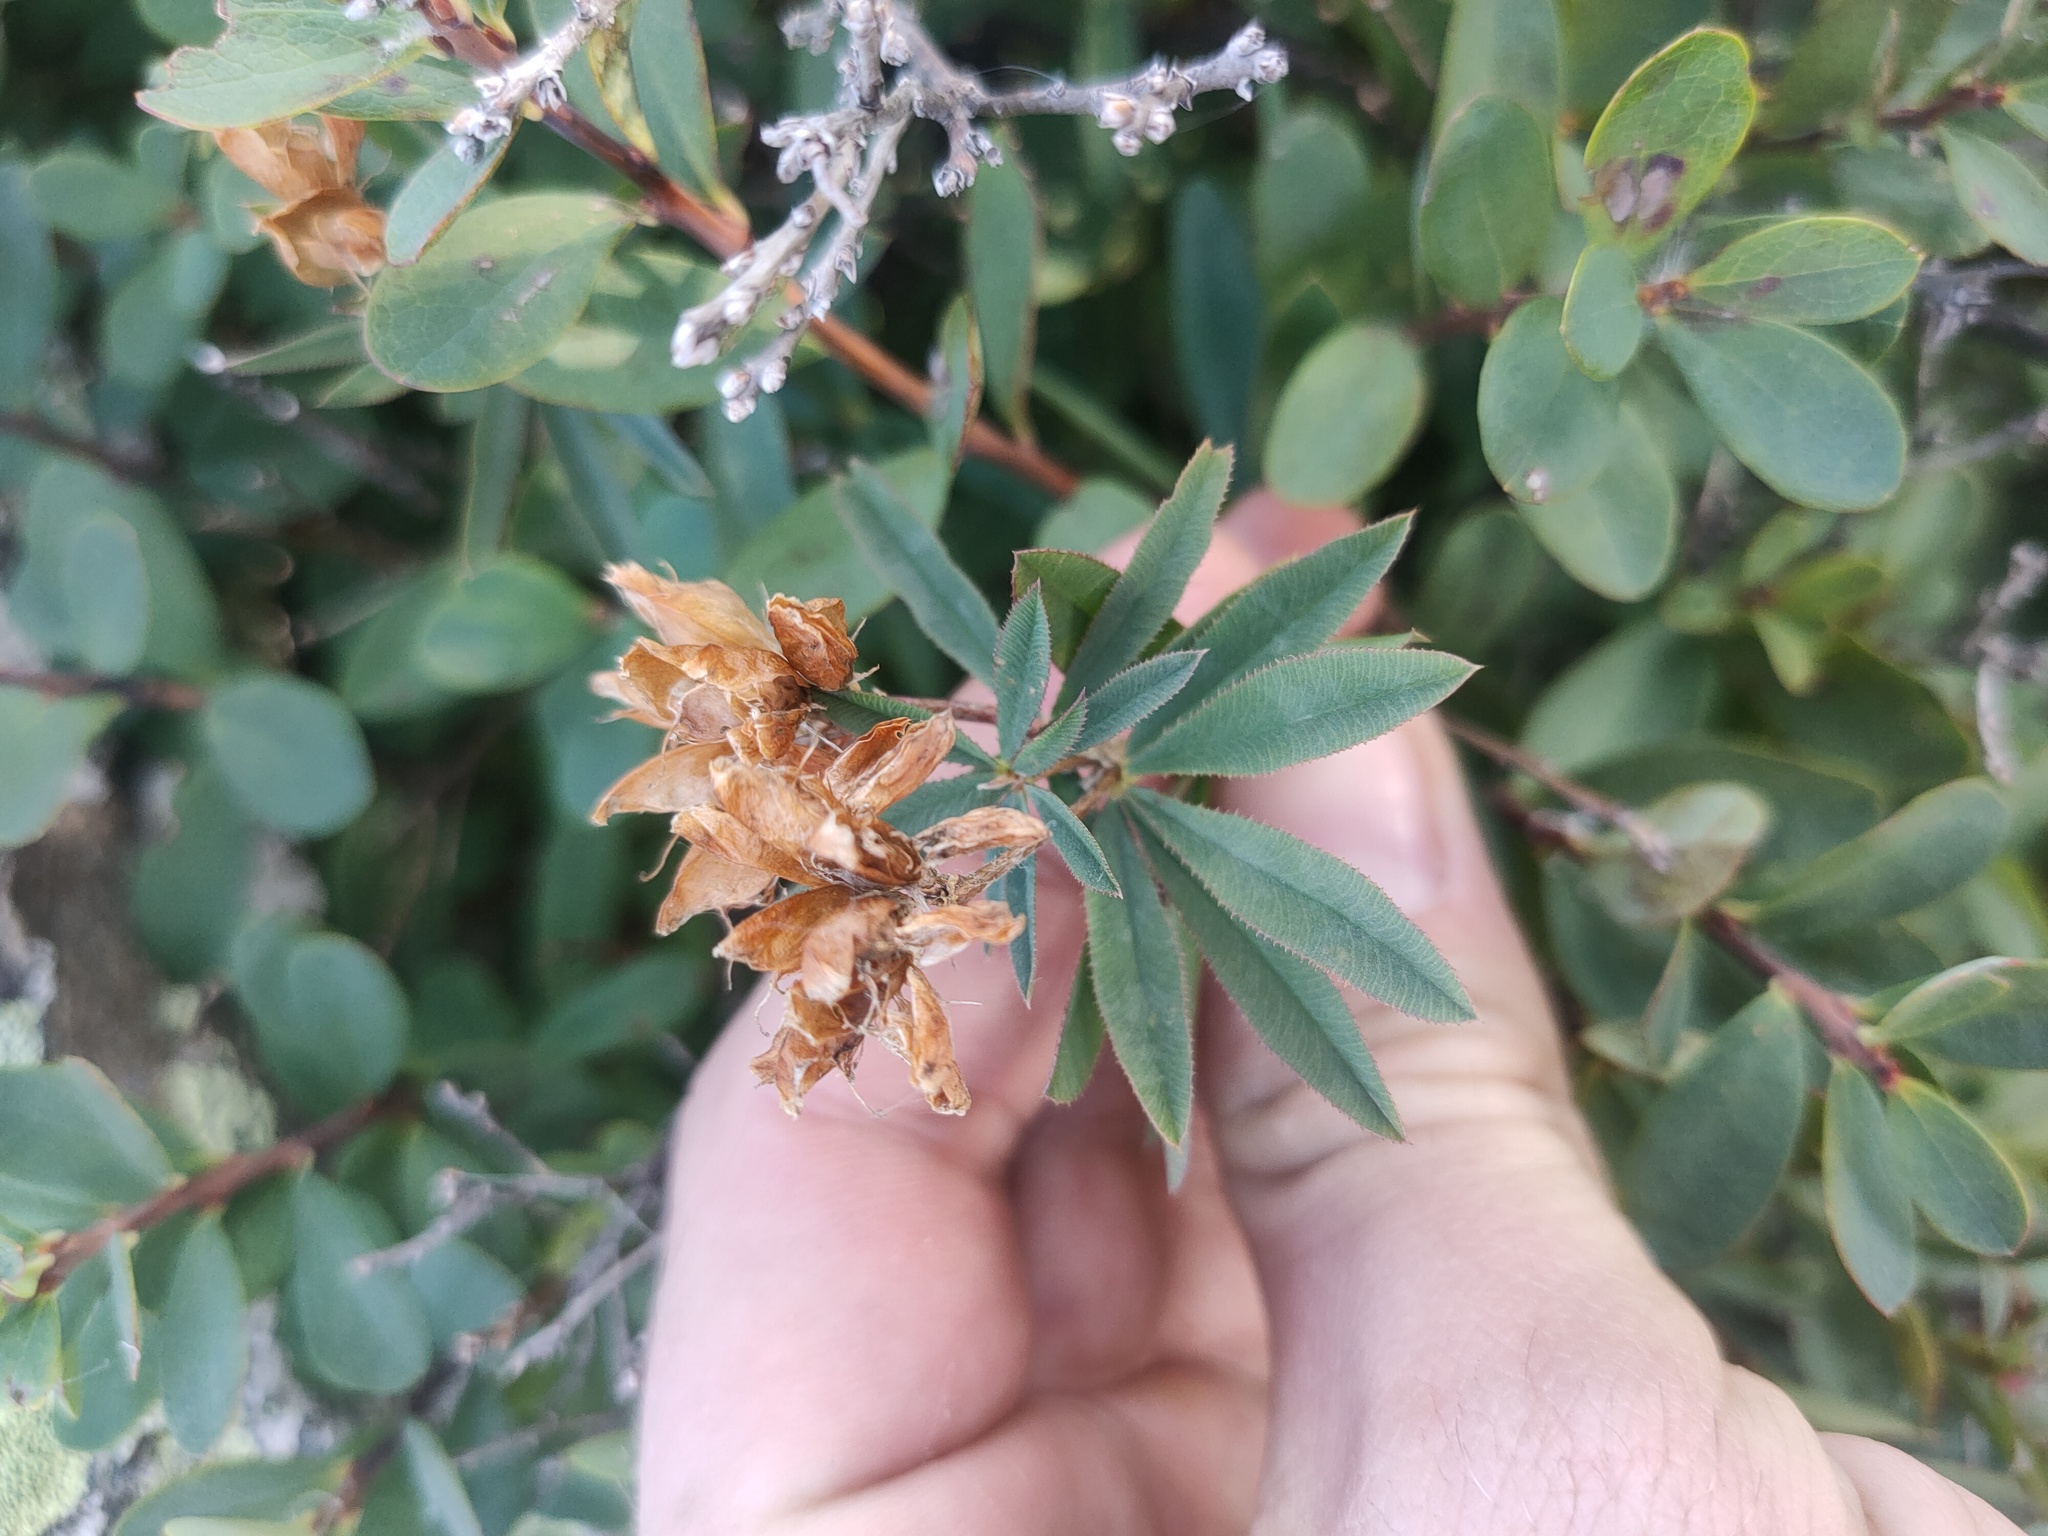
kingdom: Plantae
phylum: Tracheophyta
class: Magnoliopsida
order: Fabales
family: Fabaceae
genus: Trifolium
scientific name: Trifolium lupinaster
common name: Lupine clover
